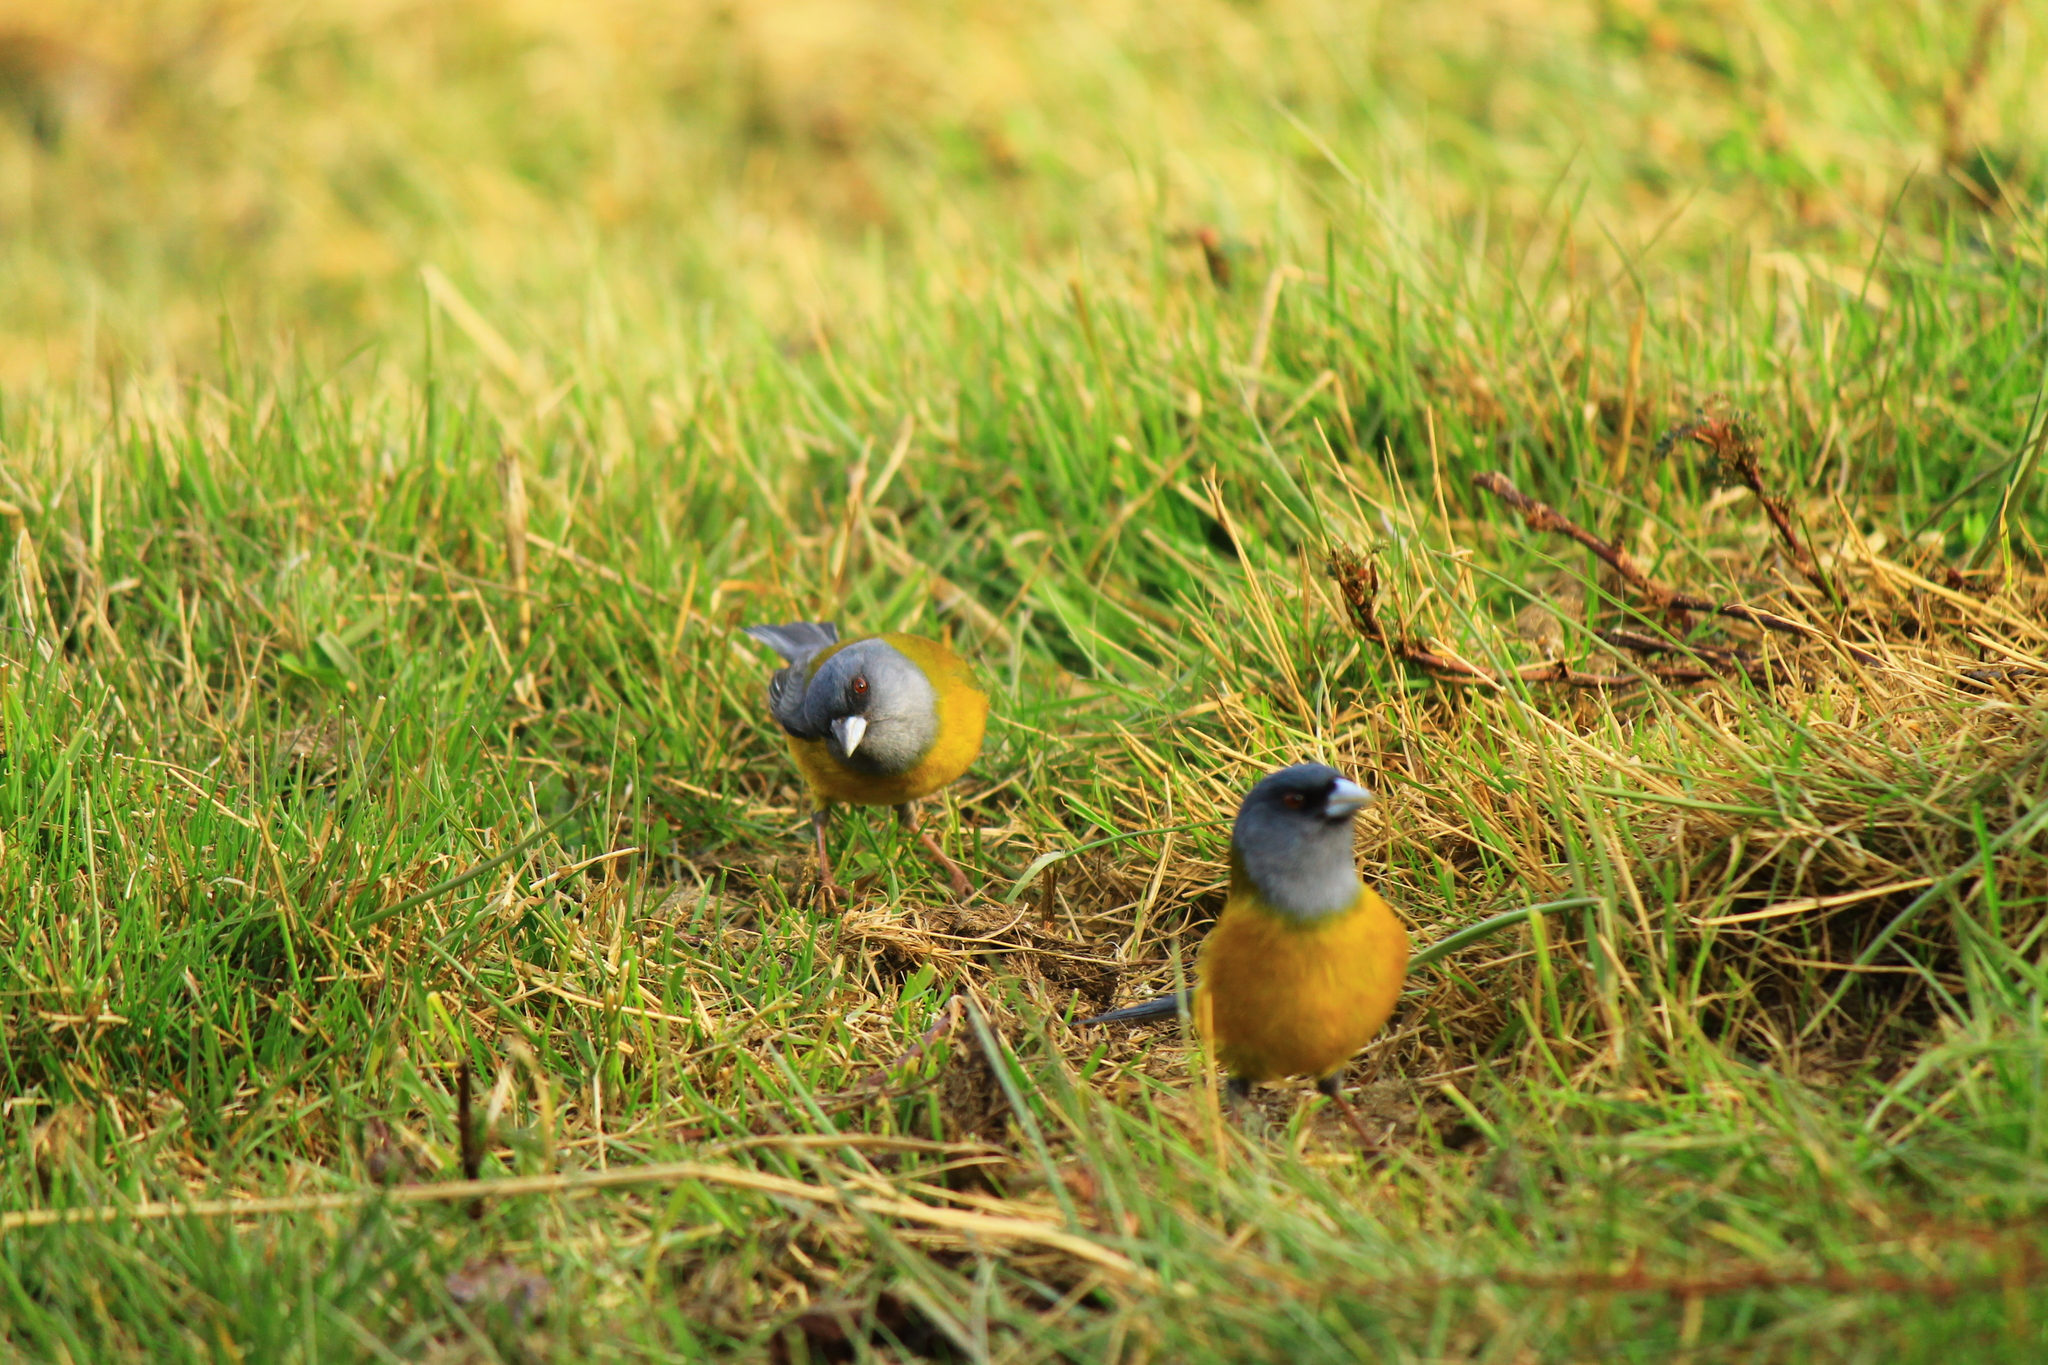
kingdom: Animalia
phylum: Chordata
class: Aves
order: Passeriformes
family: Thraupidae
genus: Phrygilus
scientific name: Phrygilus patagonicus
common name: Patagonian sierra finch
